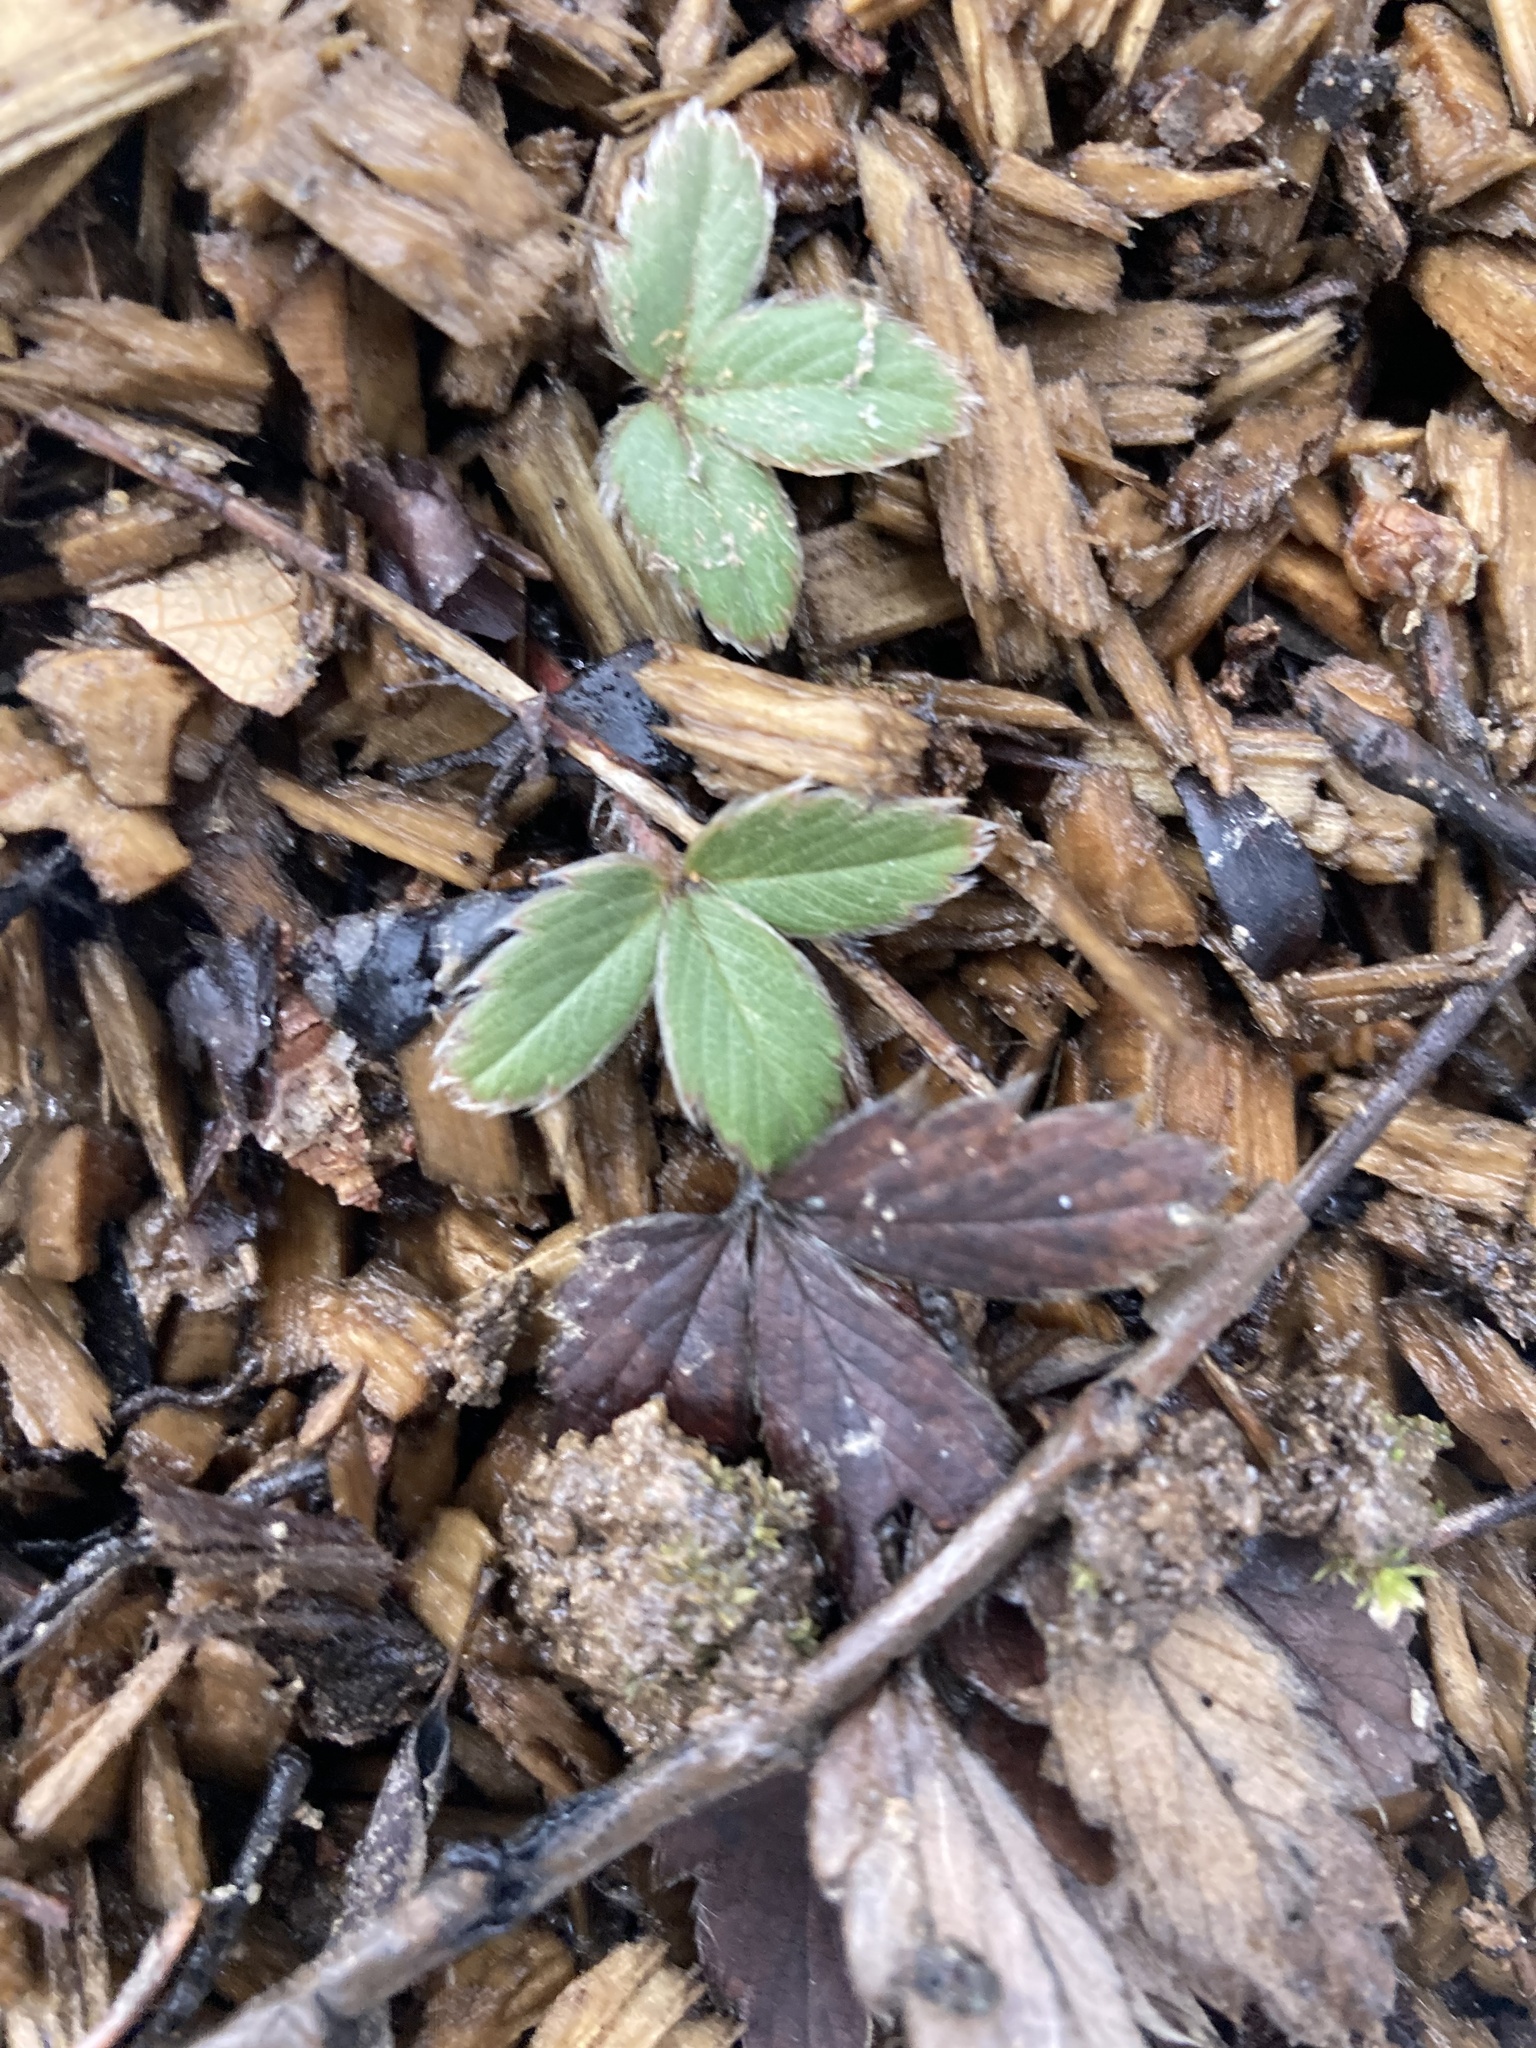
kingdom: Plantae
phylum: Tracheophyta
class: Magnoliopsida
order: Rosales
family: Rosaceae
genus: Fragaria
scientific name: Fragaria virginiana
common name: Thickleaved wild strawberry
